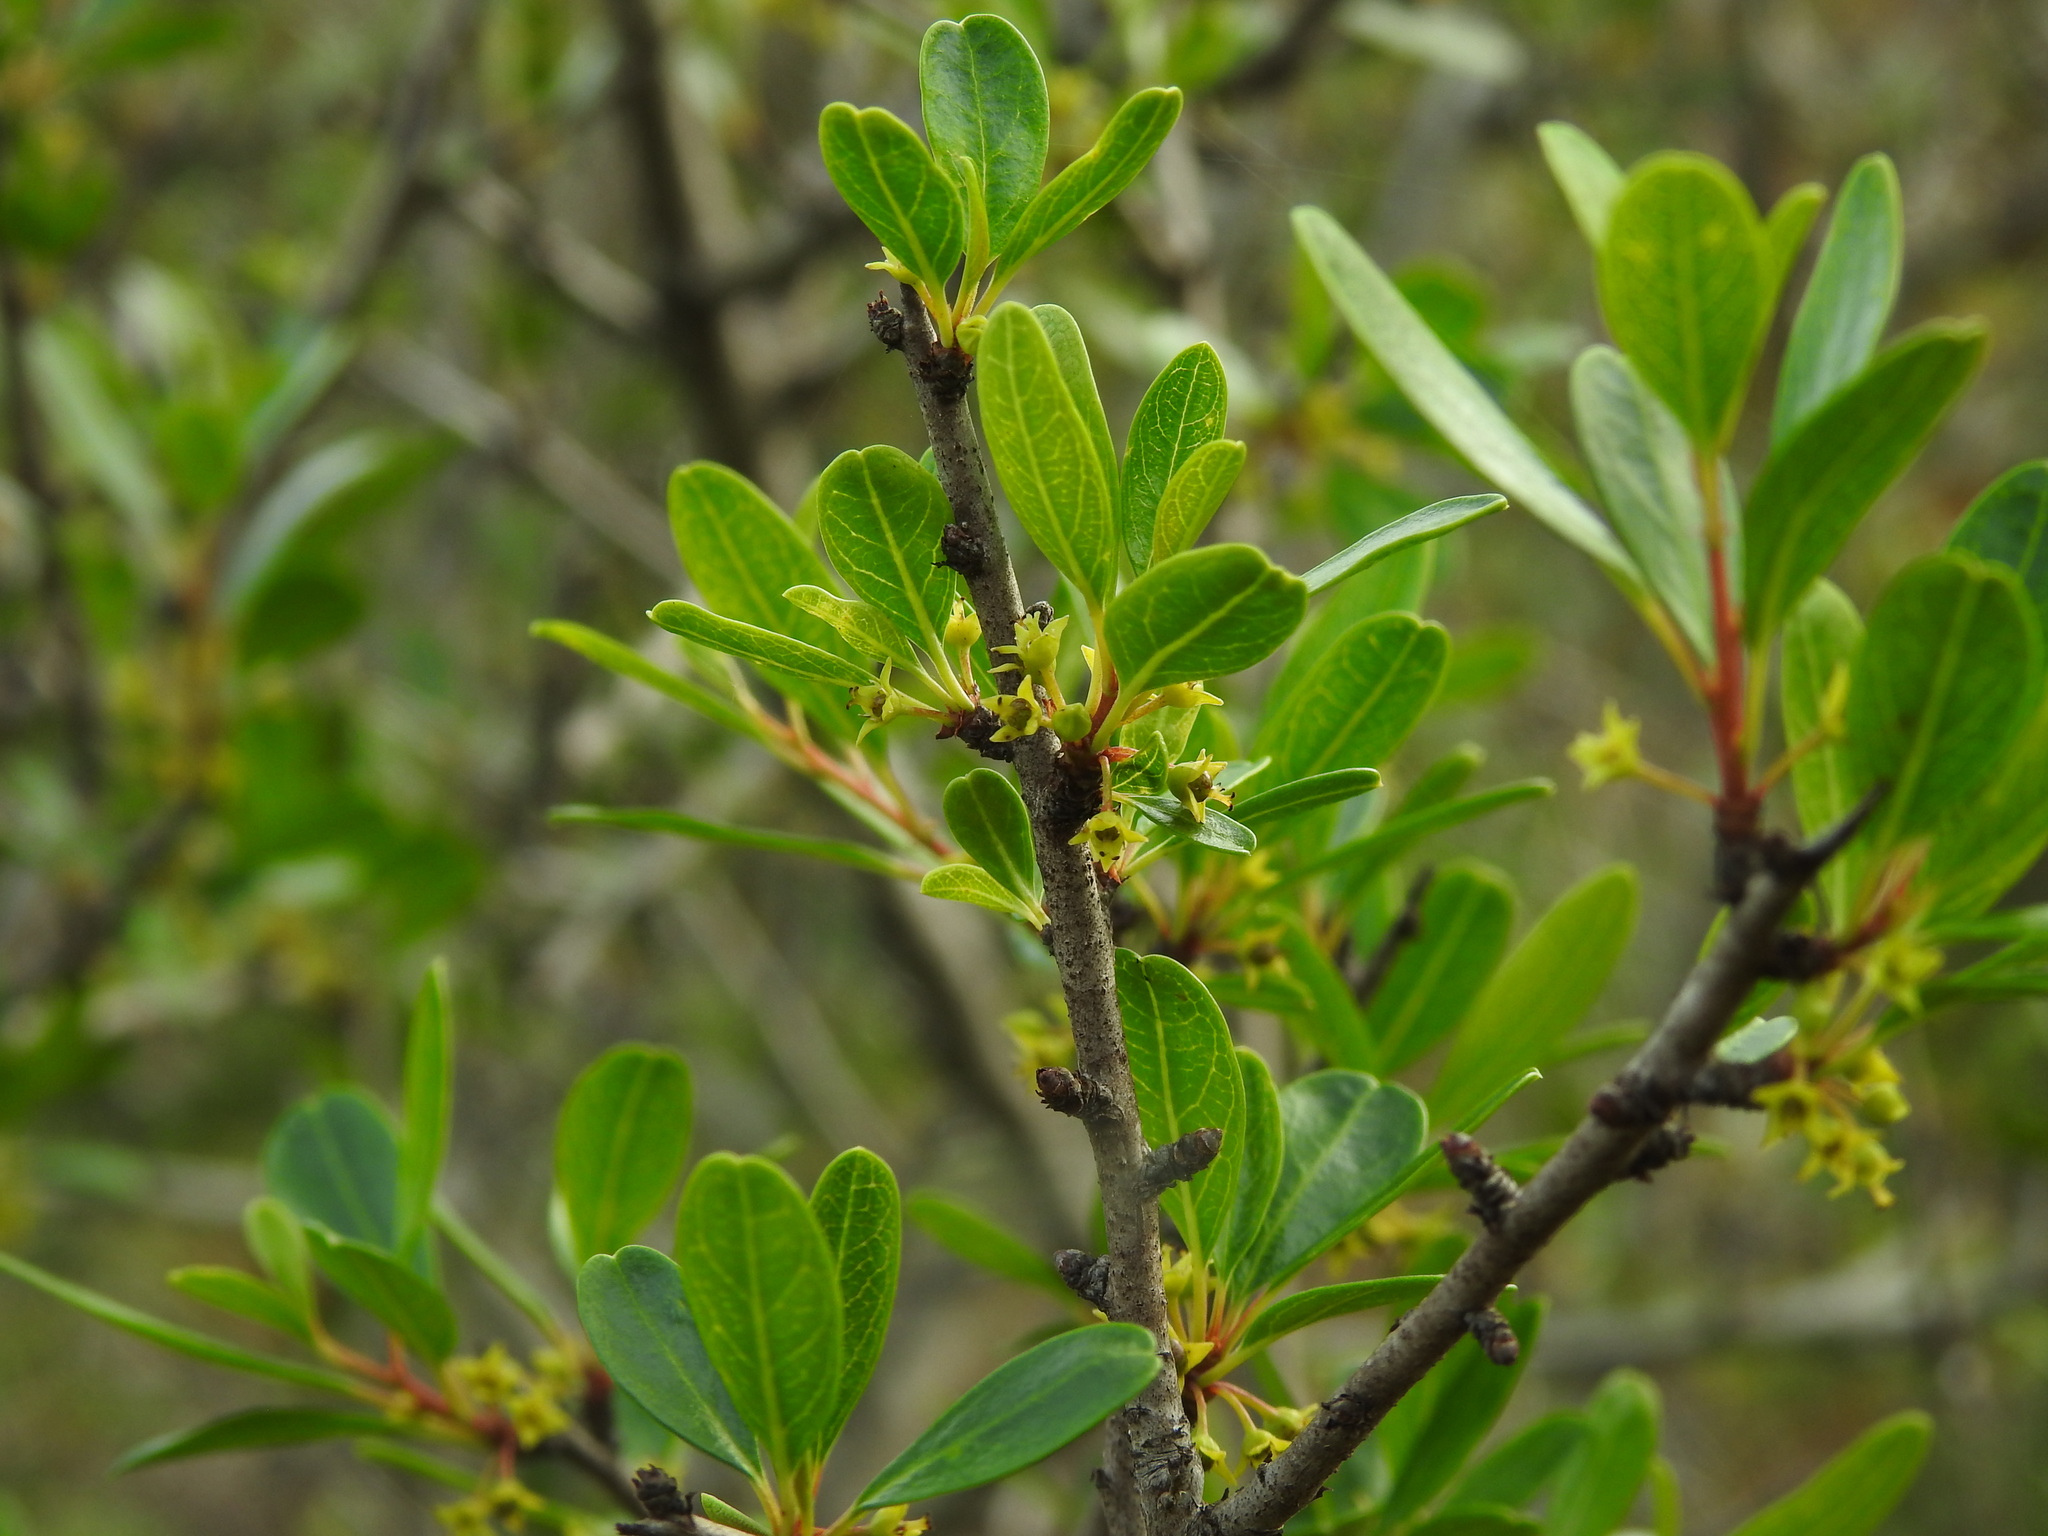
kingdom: Plantae
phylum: Tracheophyta
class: Magnoliopsida
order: Rosales
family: Rhamnaceae
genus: Rhamnus
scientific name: Rhamnus oleoides
